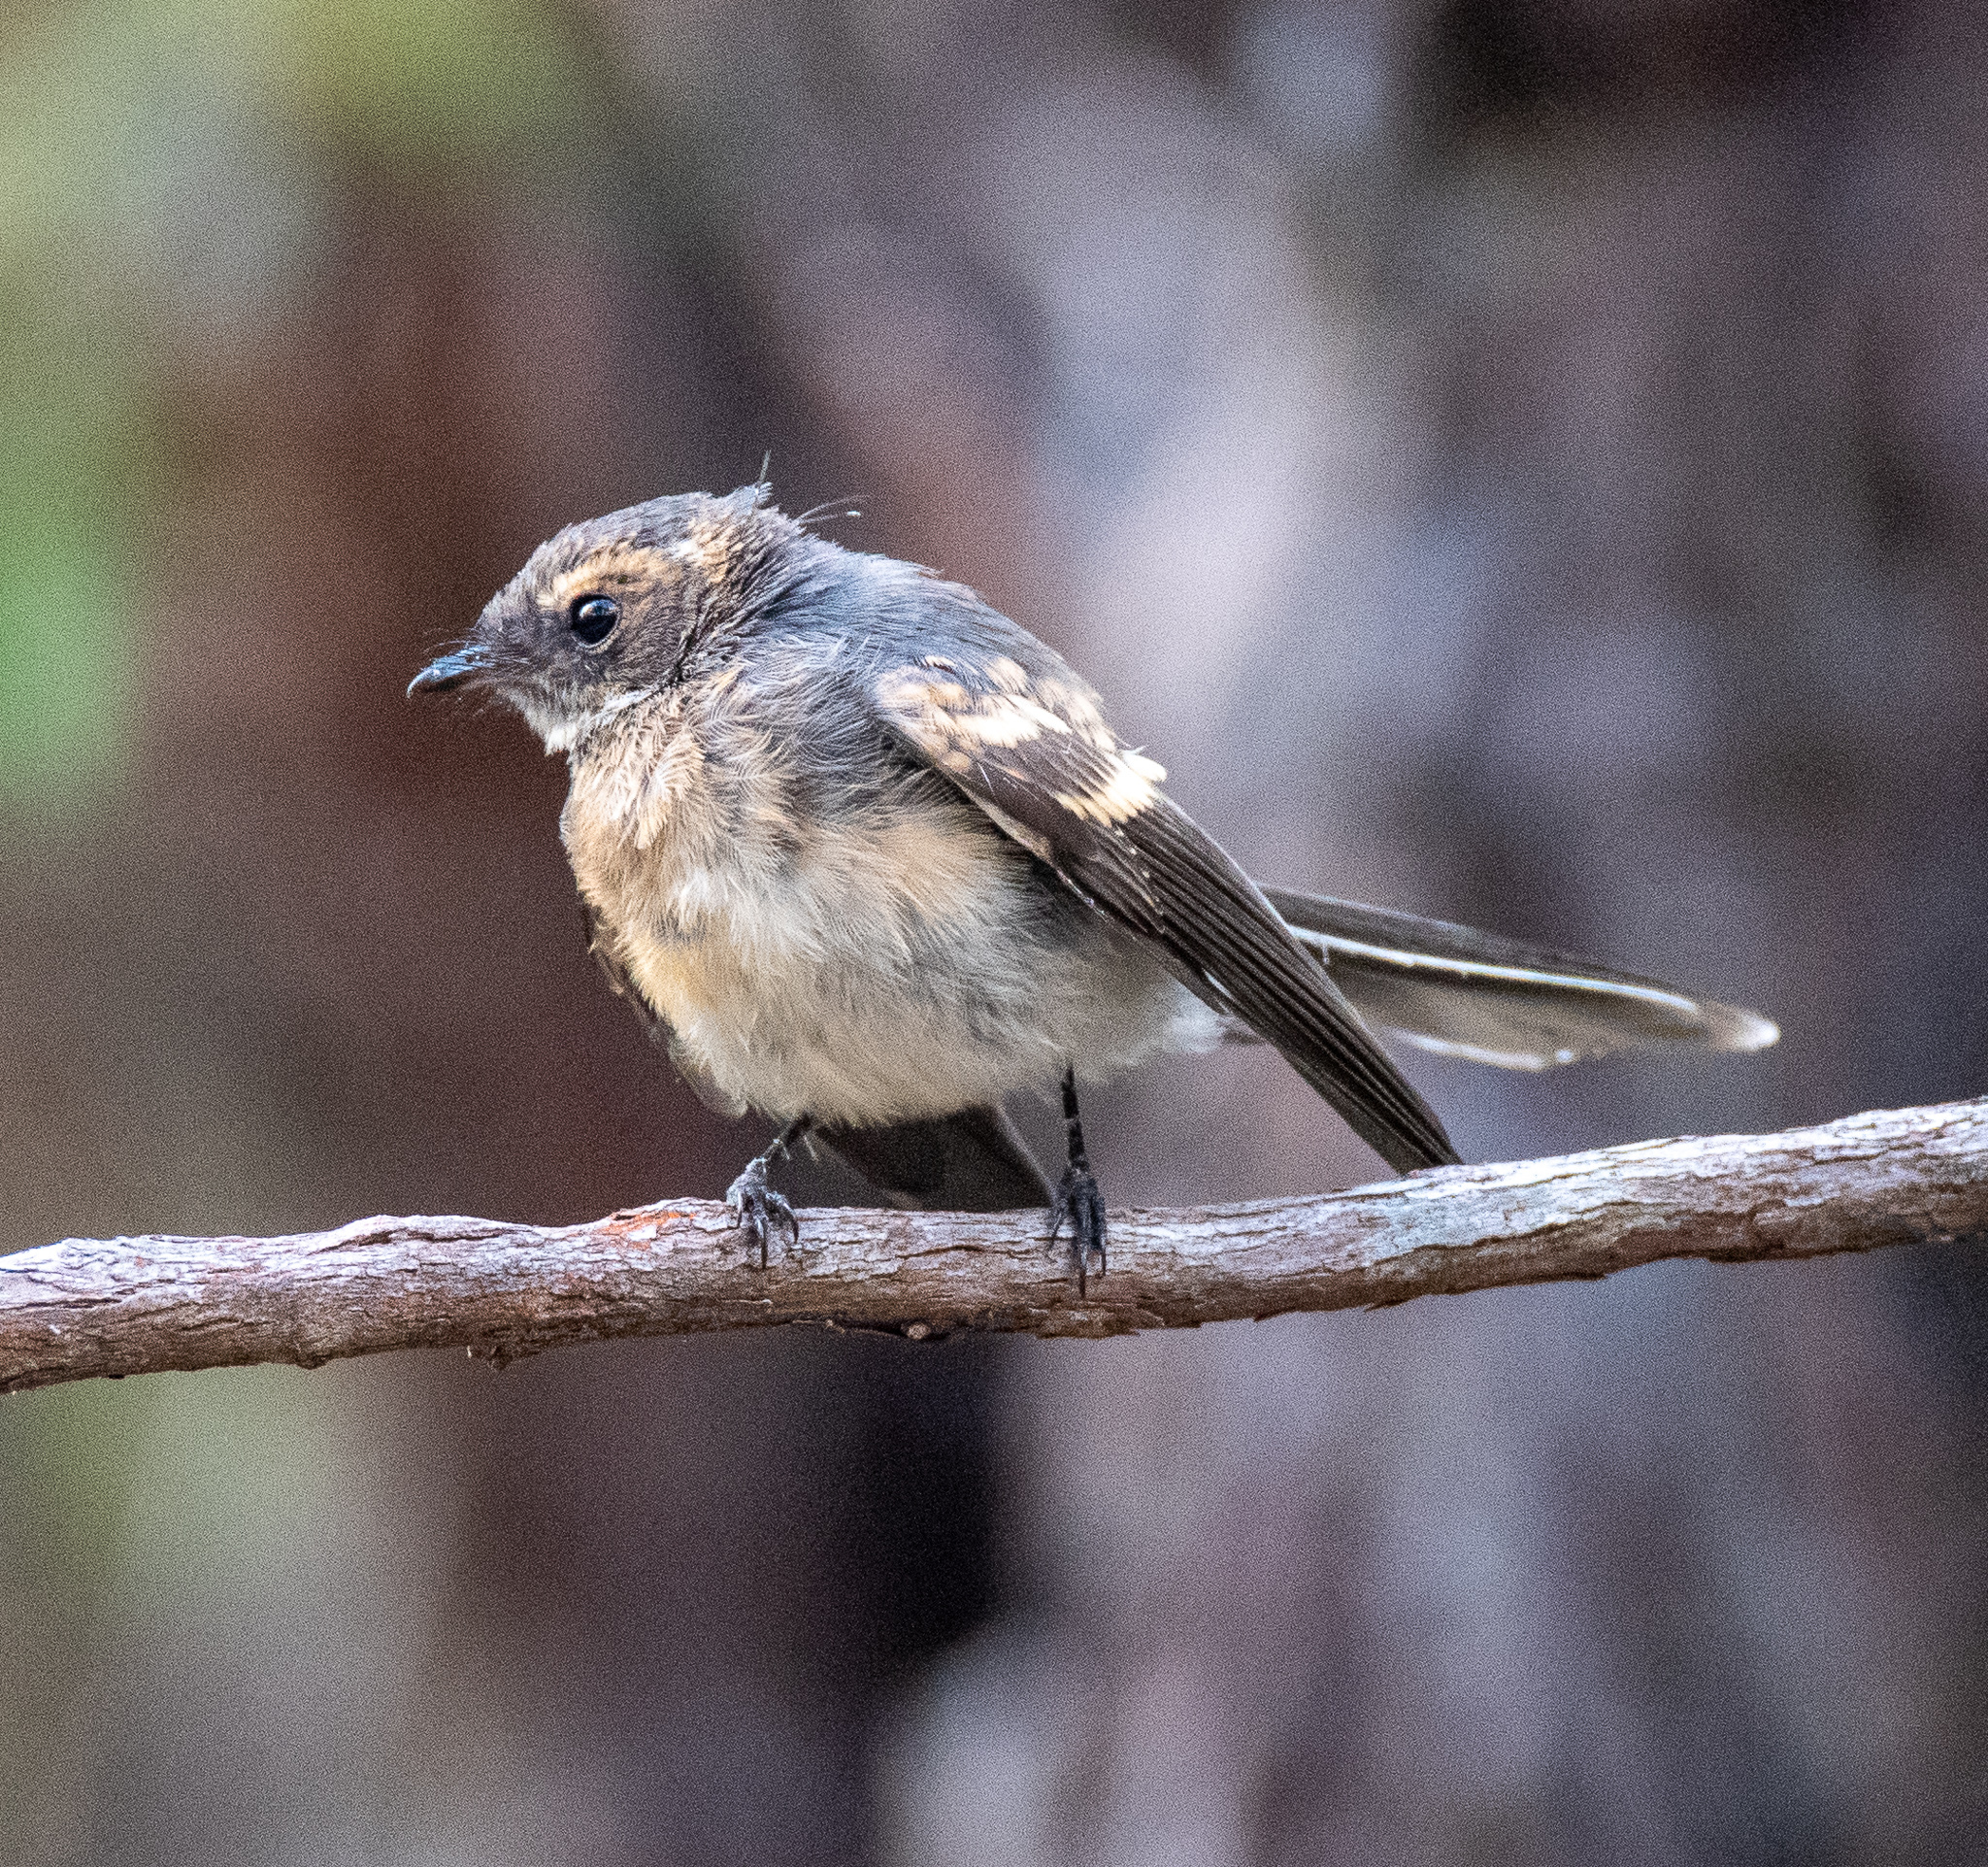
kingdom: Animalia
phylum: Chordata
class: Aves
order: Passeriformes
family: Rhipiduridae
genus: Rhipidura
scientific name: Rhipidura albiscapa
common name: Grey fantail
